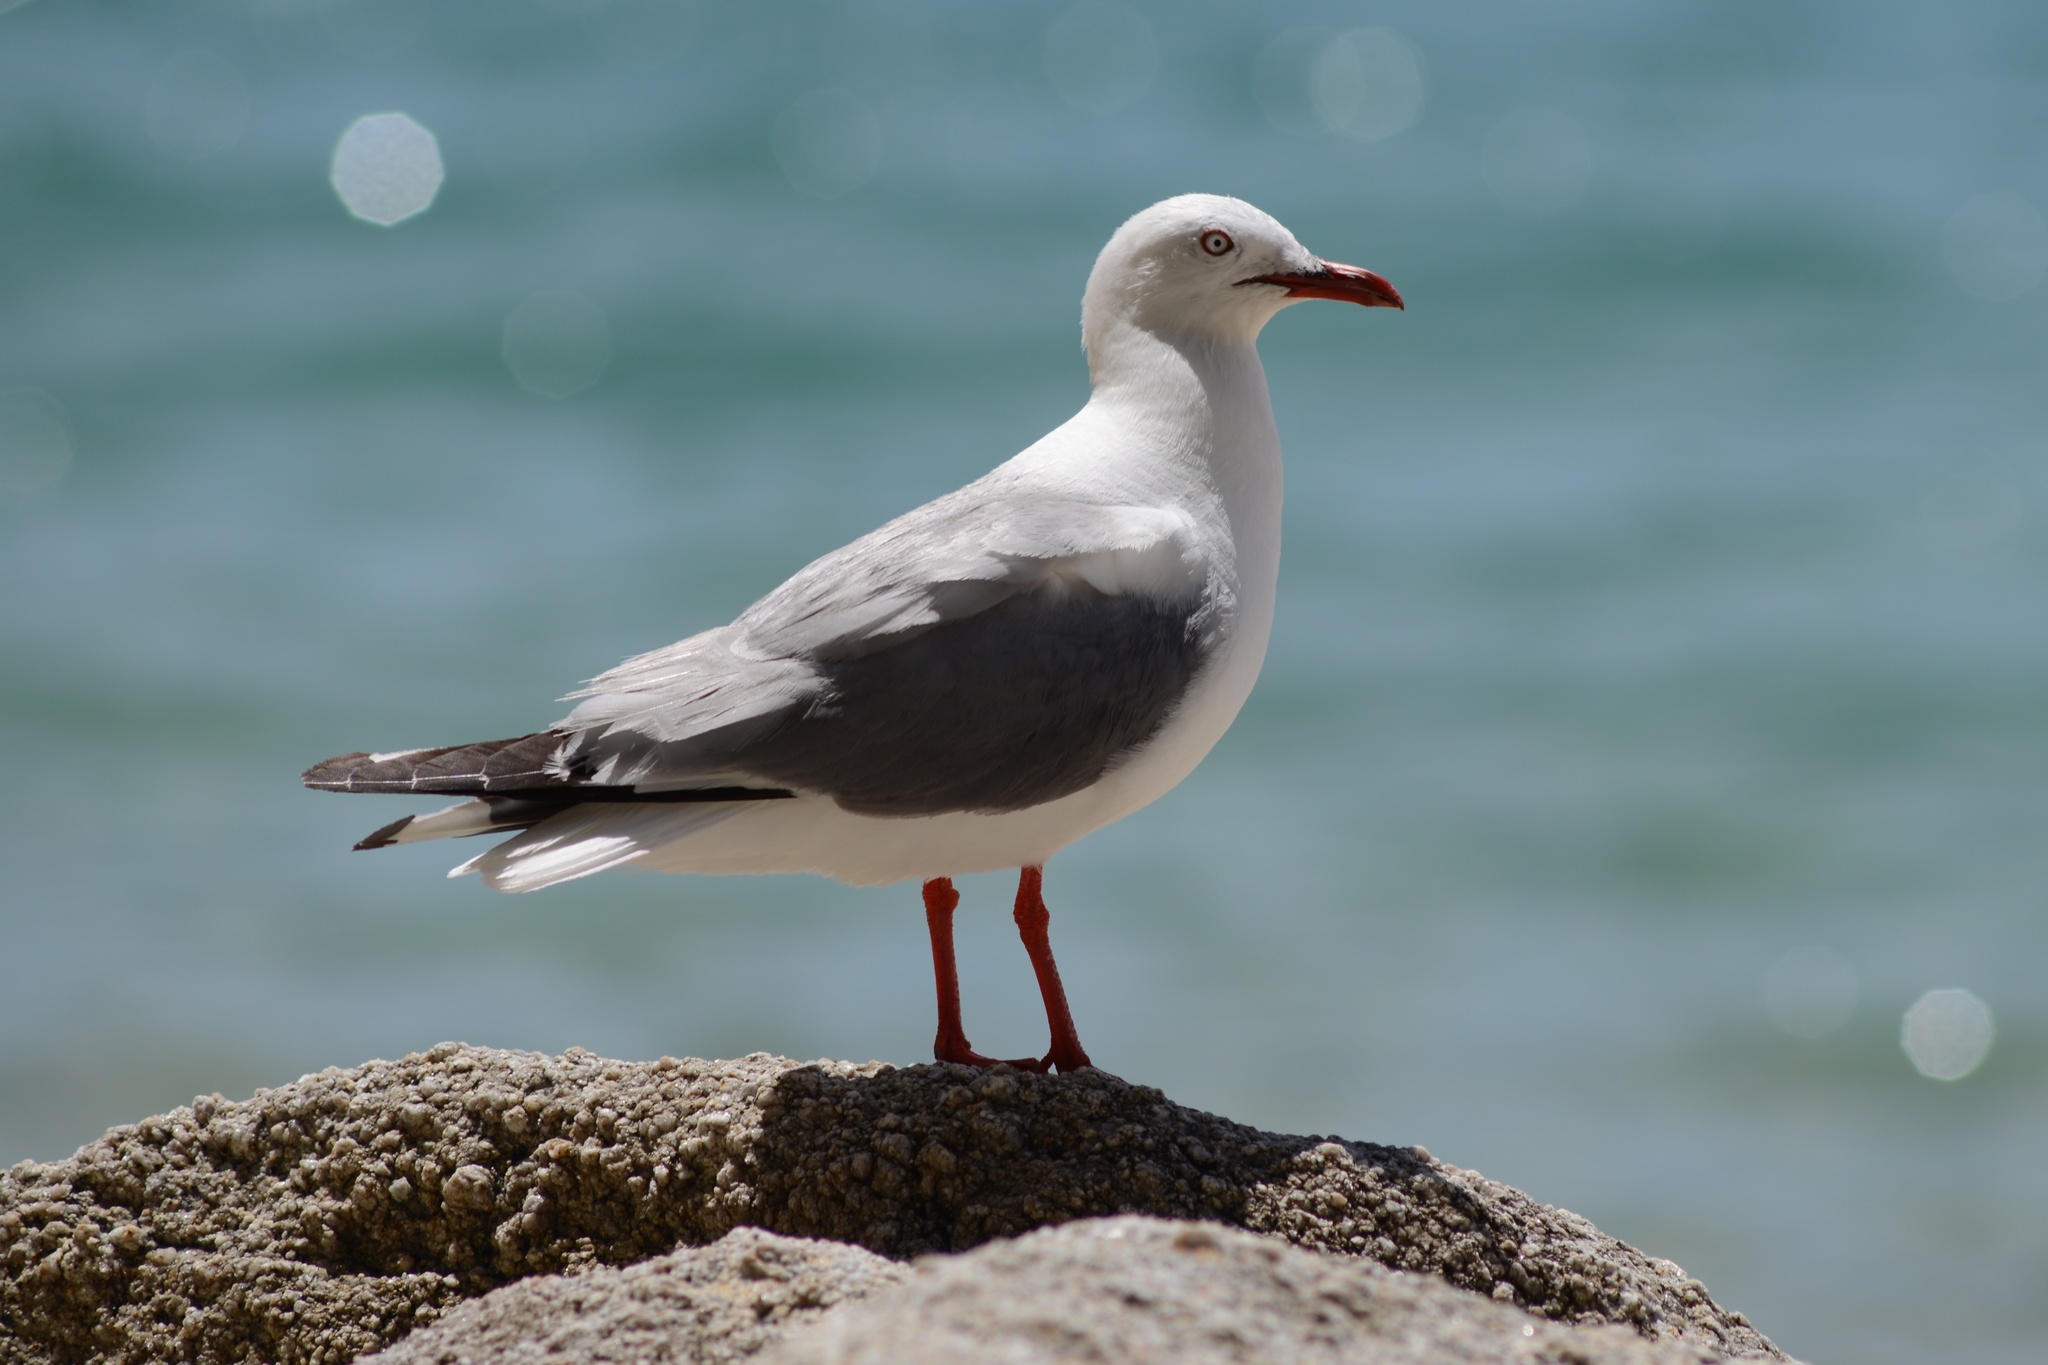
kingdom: Animalia
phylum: Chordata
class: Aves
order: Charadriiformes
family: Laridae
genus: Chroicocephalus
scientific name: Chroicocephalus novaehollandiae
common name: Silver gull
